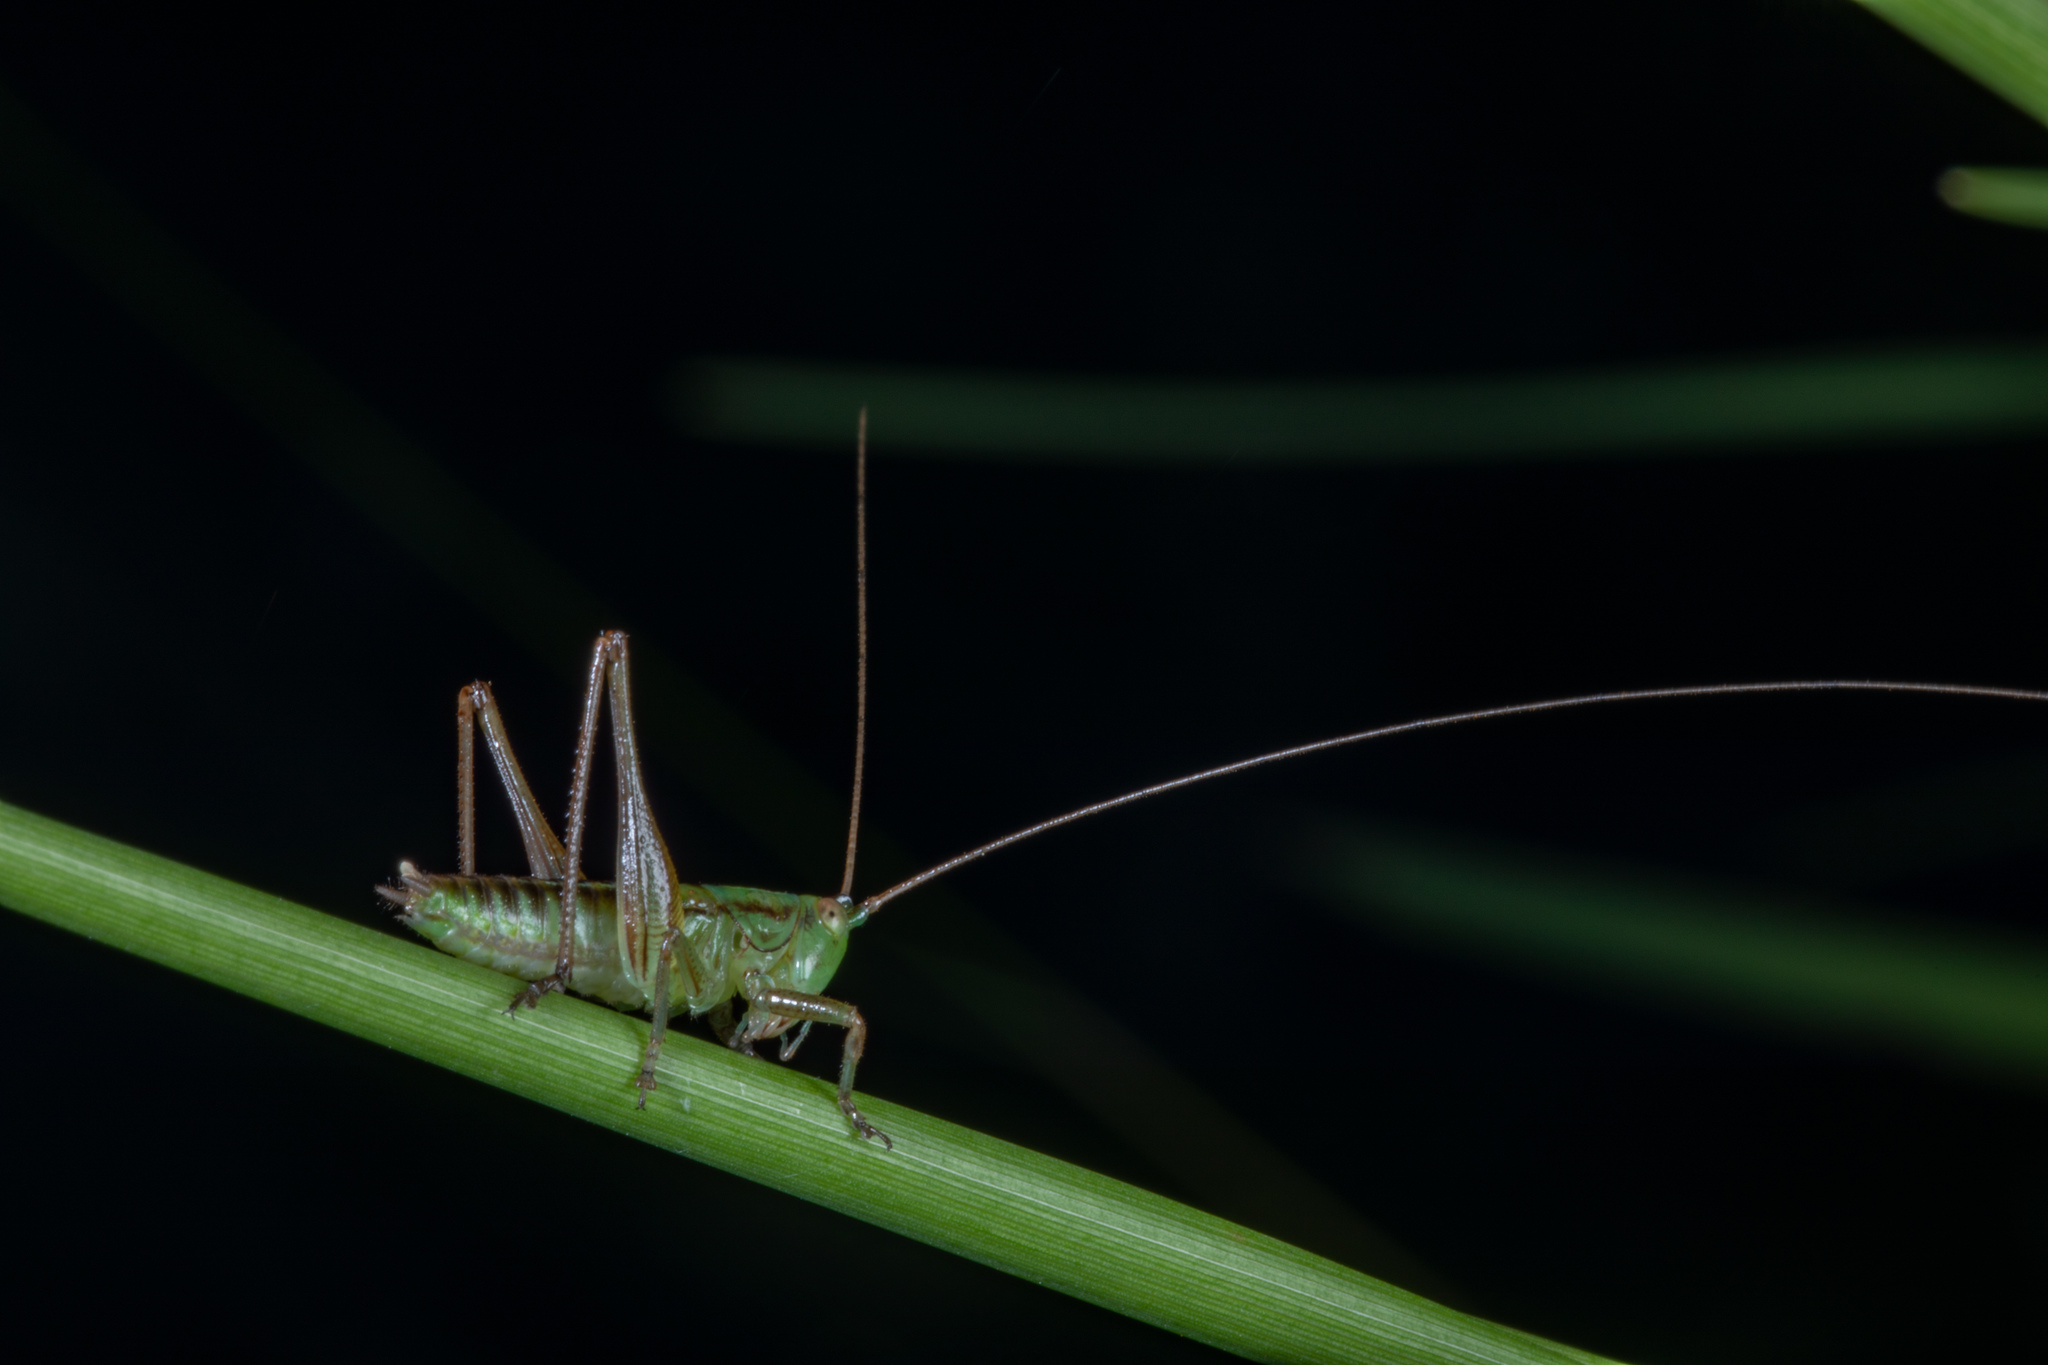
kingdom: Animalia
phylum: Arthropoda
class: Insecta
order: Orthoptera
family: Tettigoniidae
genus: Conocephalus
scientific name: Conocephalus semivittatus
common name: Blackish meadow katydid
